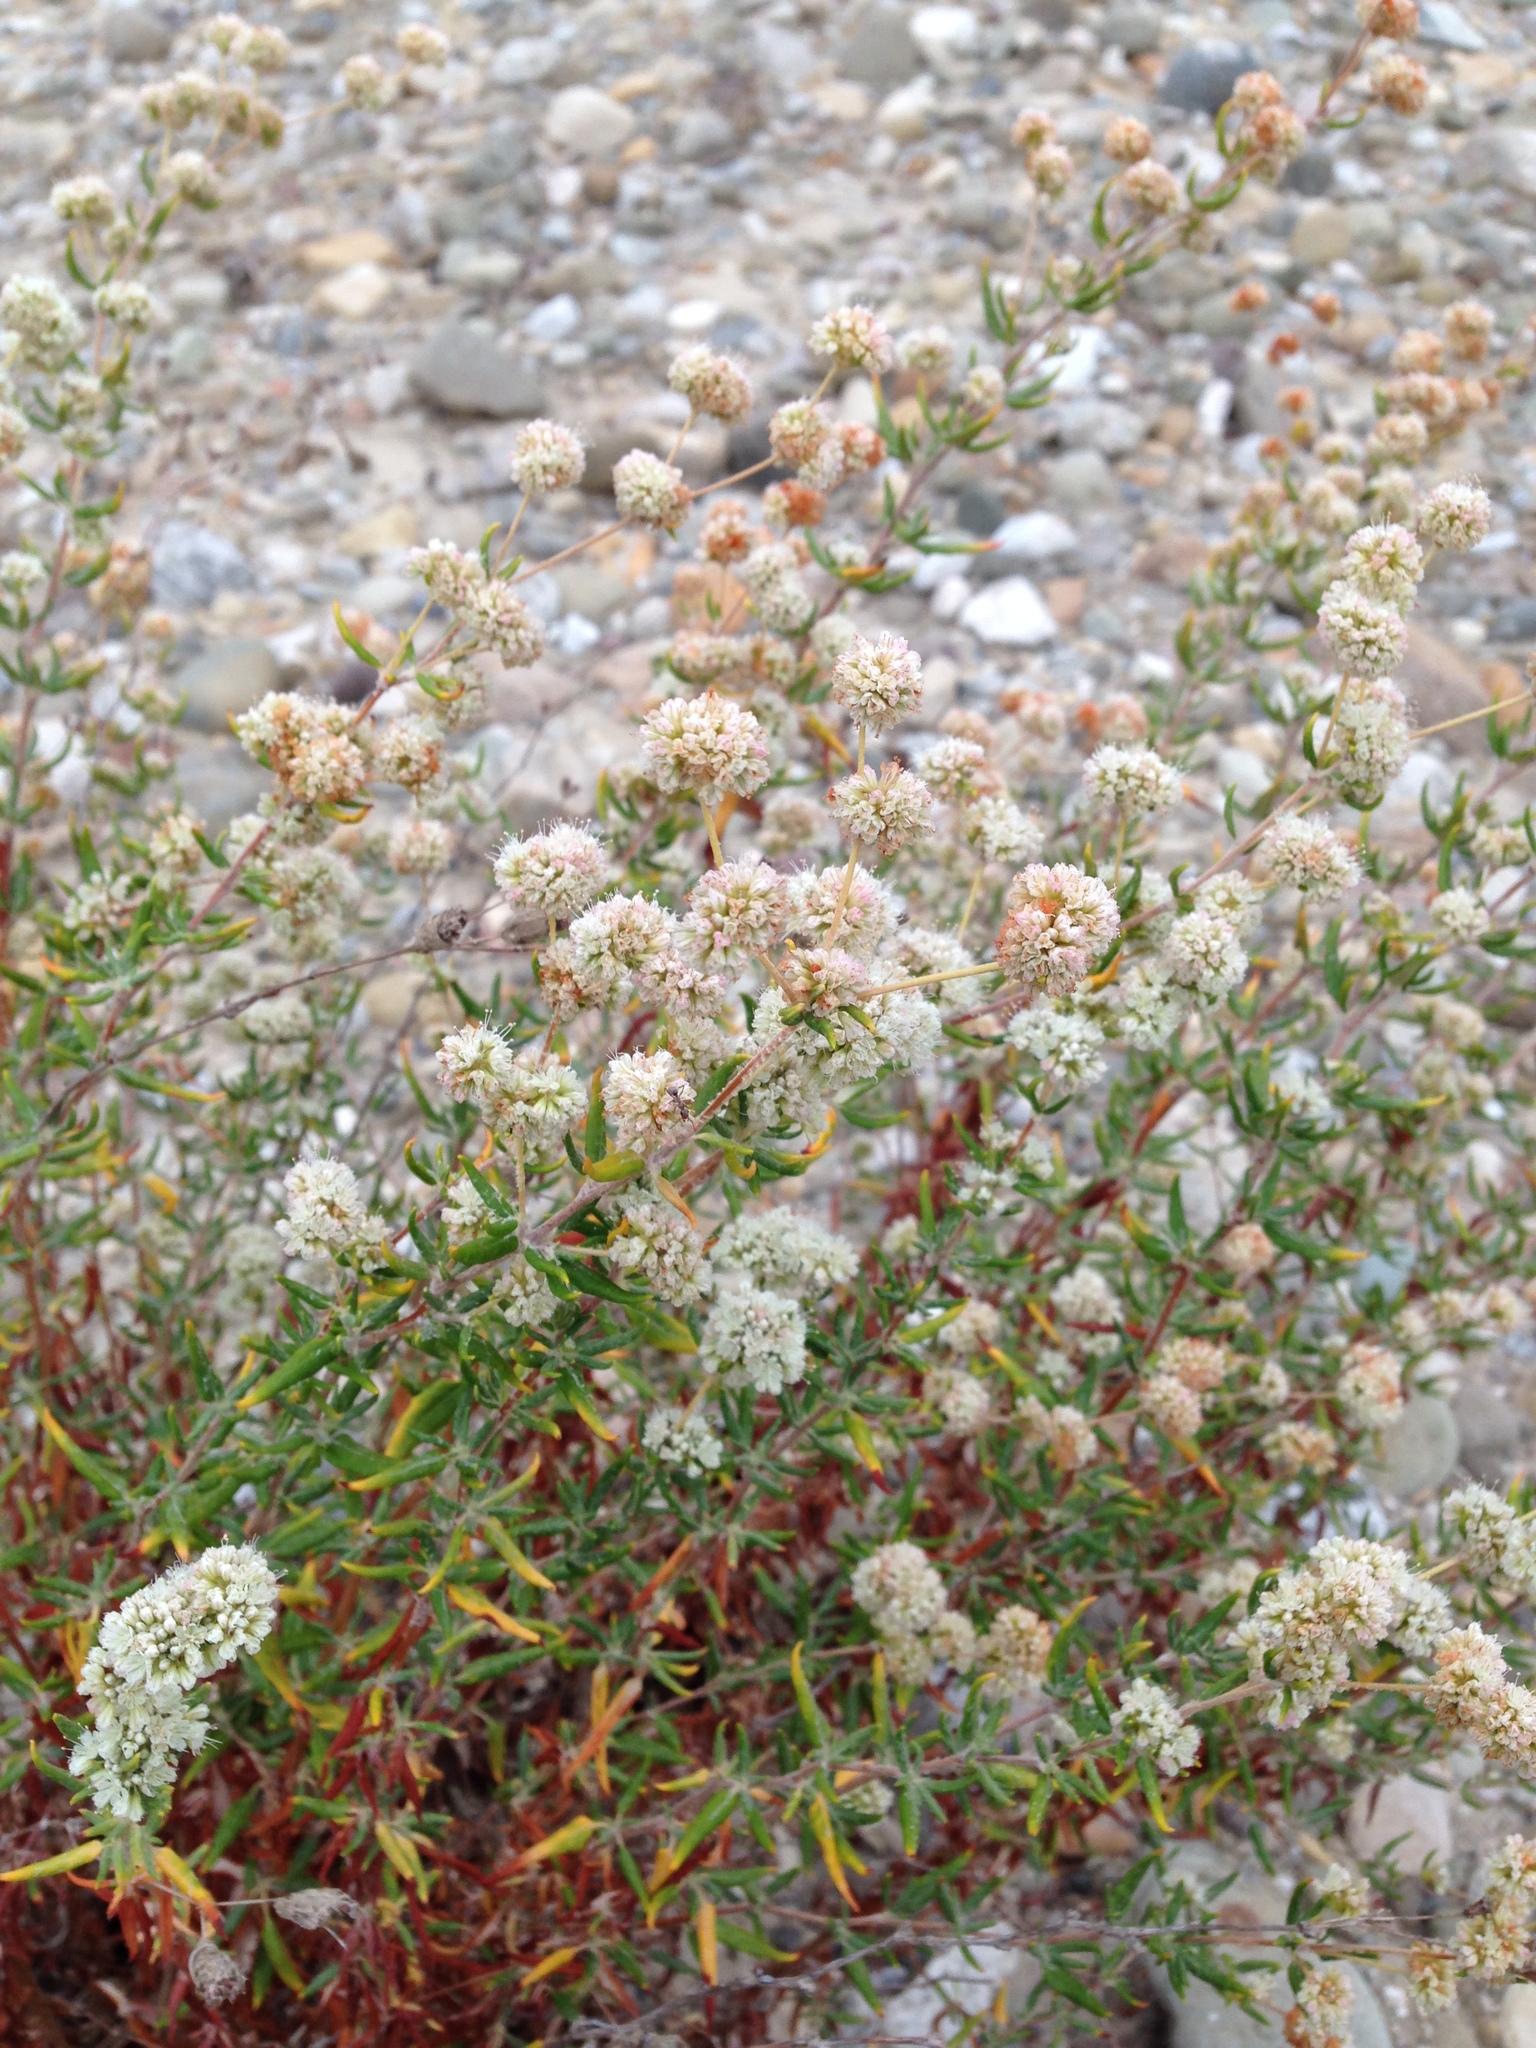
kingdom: Plantae
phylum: Tracheophyta
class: Magnoliopsida
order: Caryophyllales
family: Polygonaceae
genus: Eriogonum
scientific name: Eriogonum parvifolium
